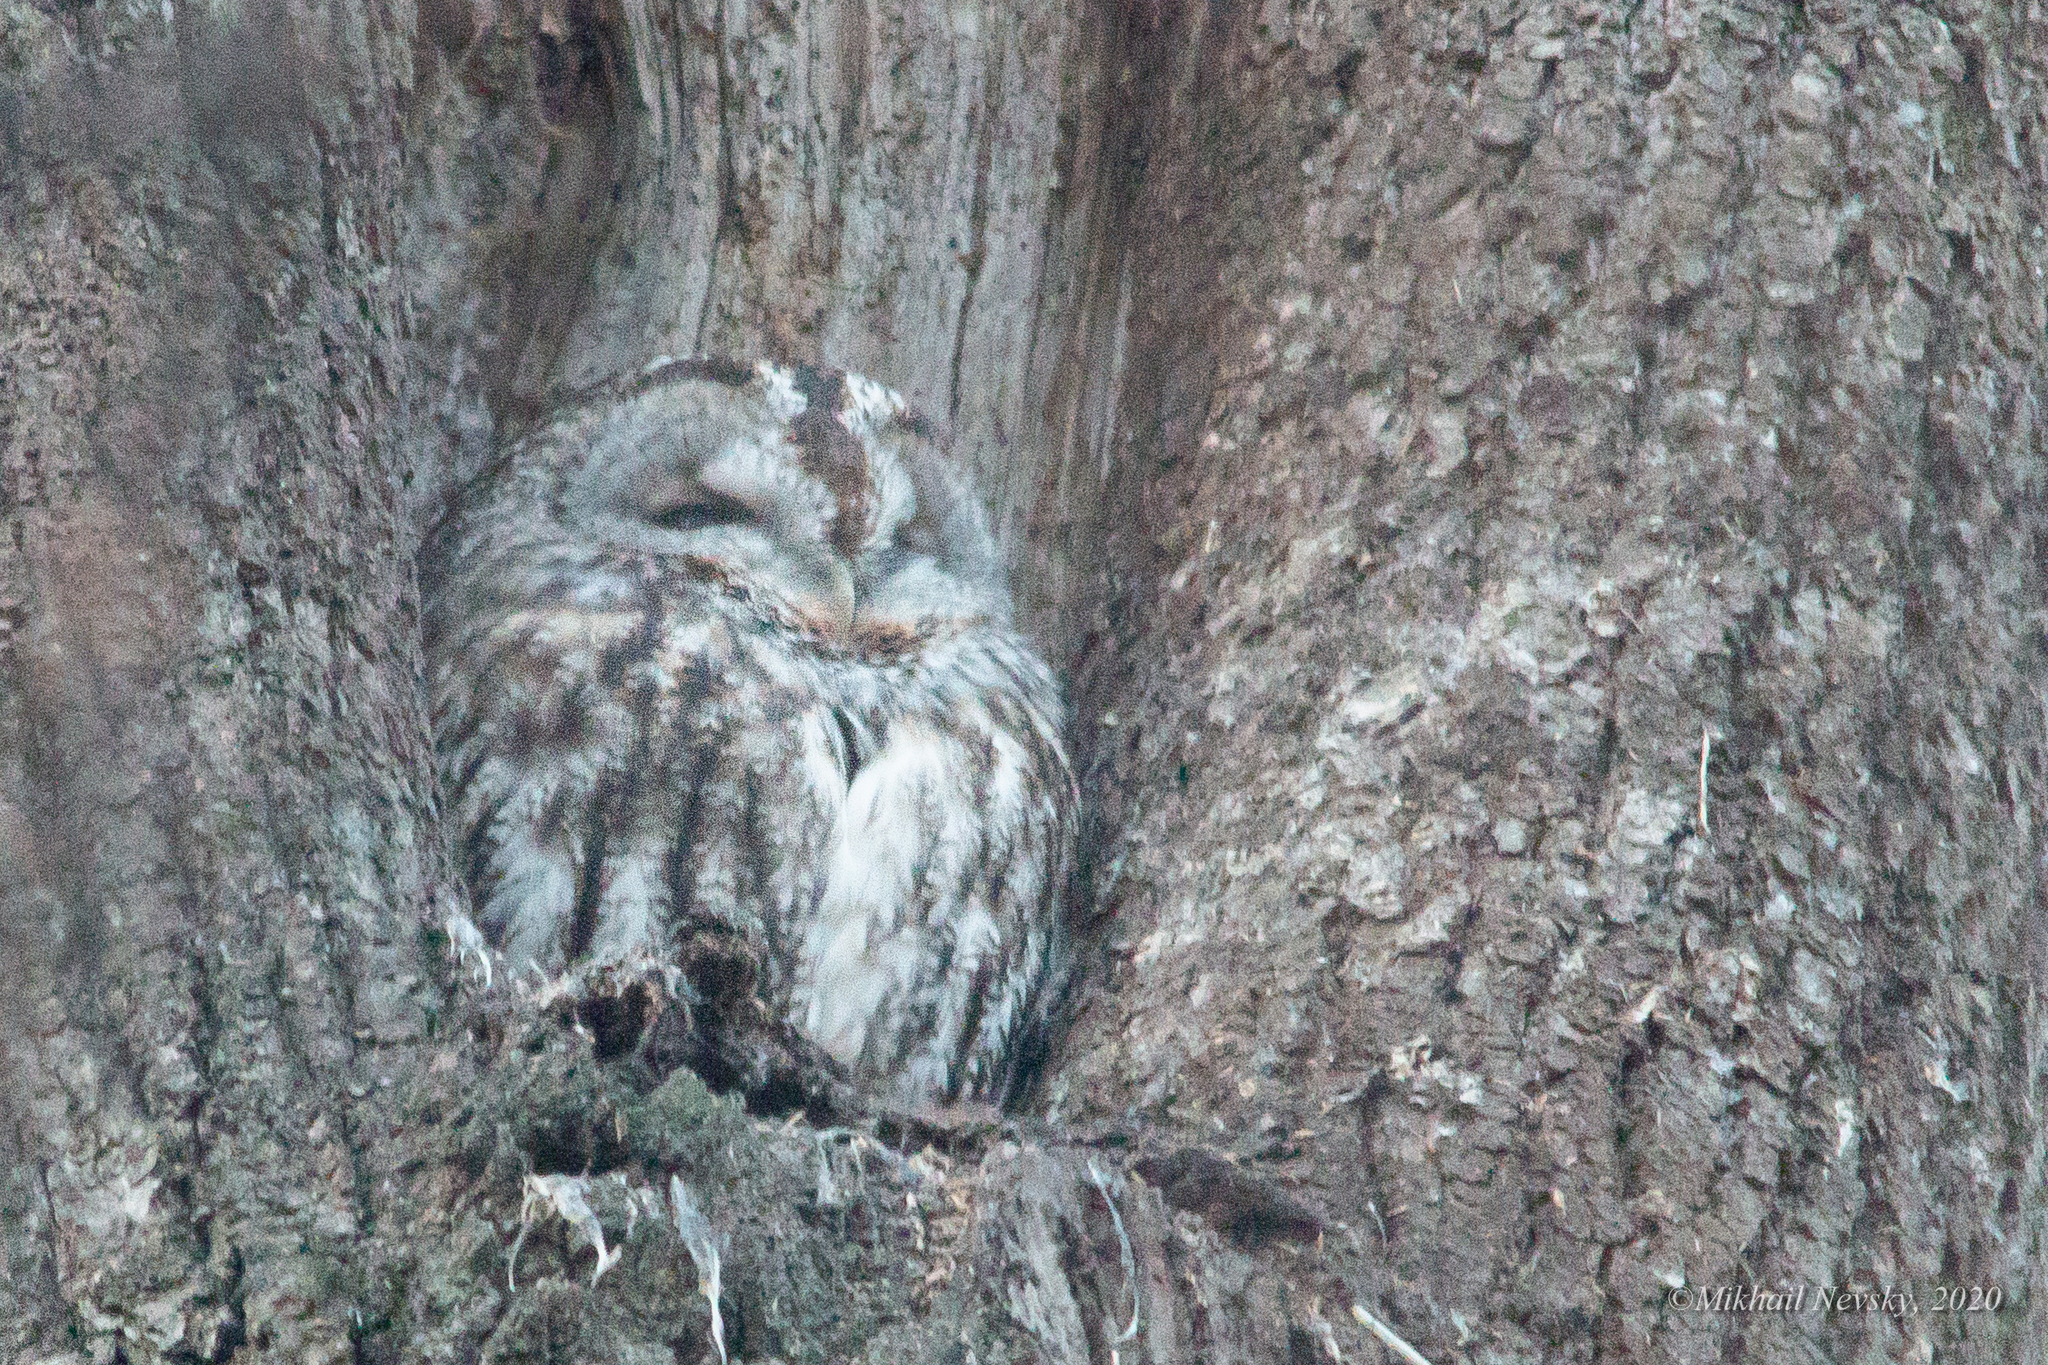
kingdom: Animalia
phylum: Chordata
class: Aves
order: Strigiformes
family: Strigidae
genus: Strix
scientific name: Strix aluco
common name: Tawny owl
